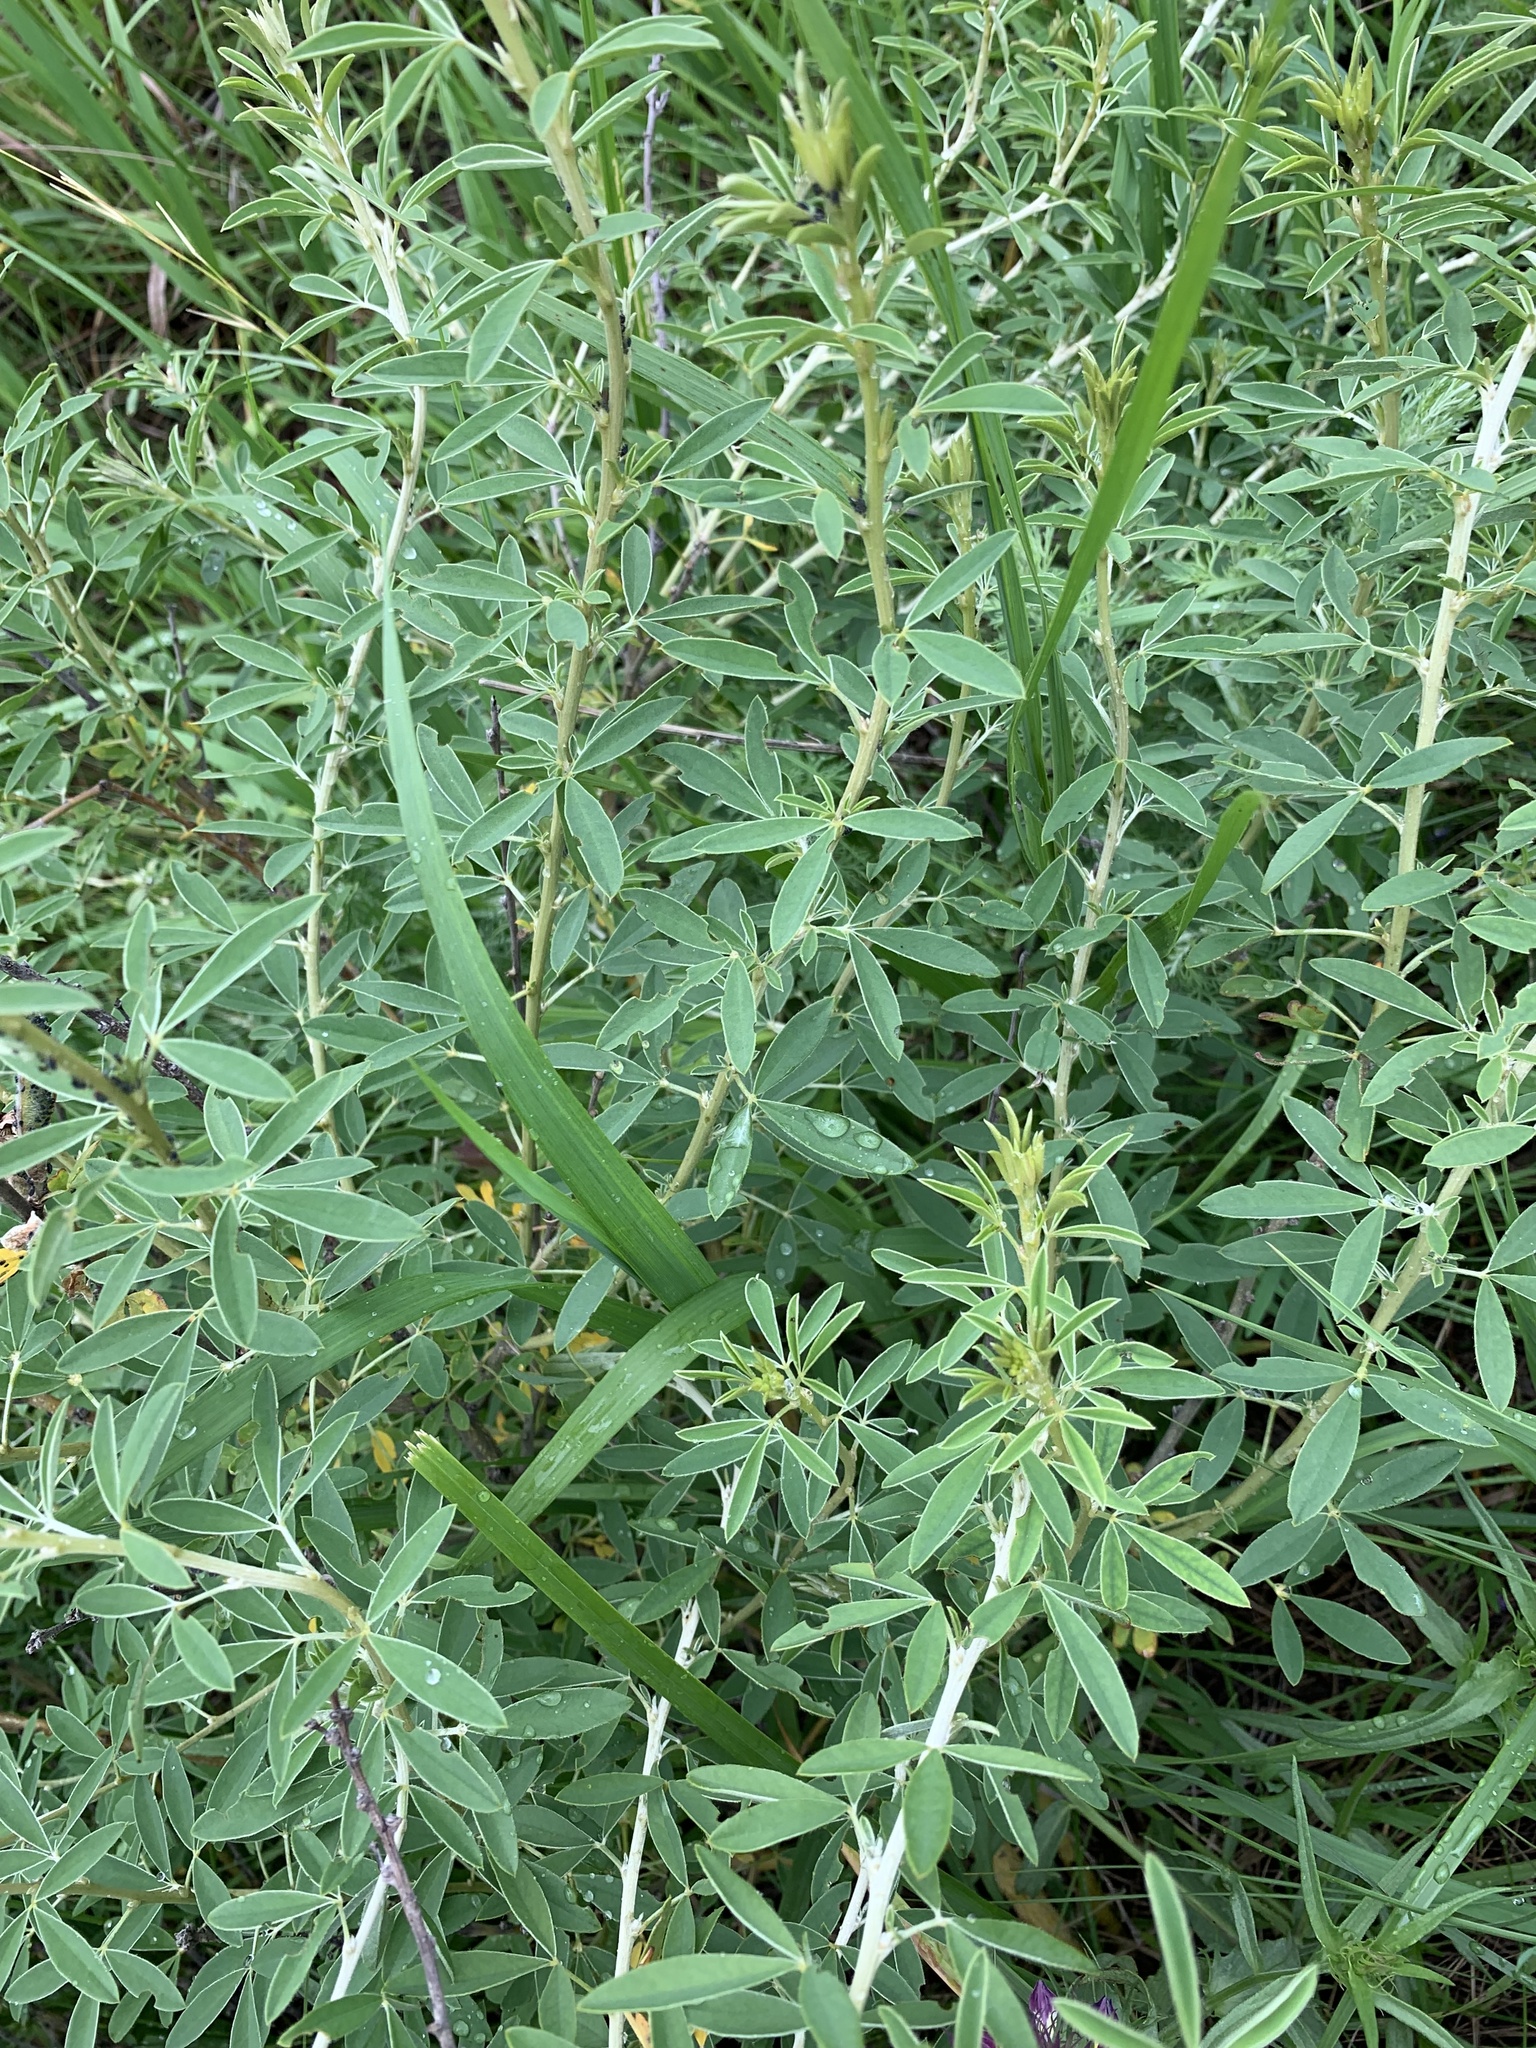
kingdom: Plantae
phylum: Tracheophyta
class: Magnoliopsida
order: Fabales
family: Fabaceae
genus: Chamaecytisus
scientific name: Chamaecytisus ruthenicus
